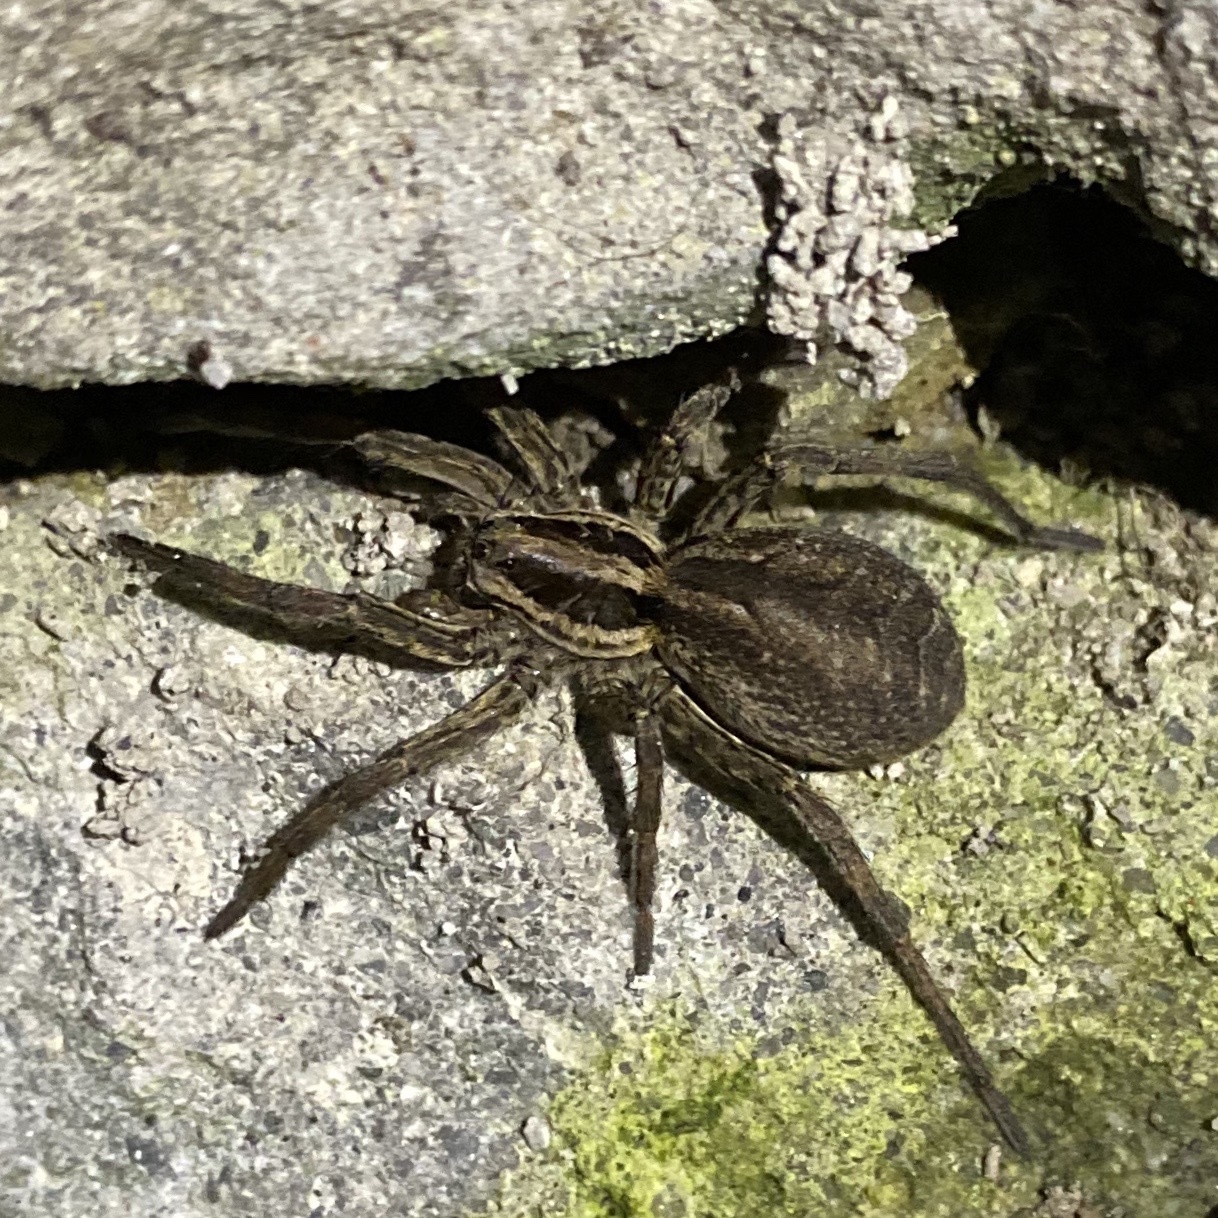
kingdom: Animalia
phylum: Arthropoda
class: Arachnida
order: Araneae
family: Lycosidae
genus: Hogna
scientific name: Hogna radiata
